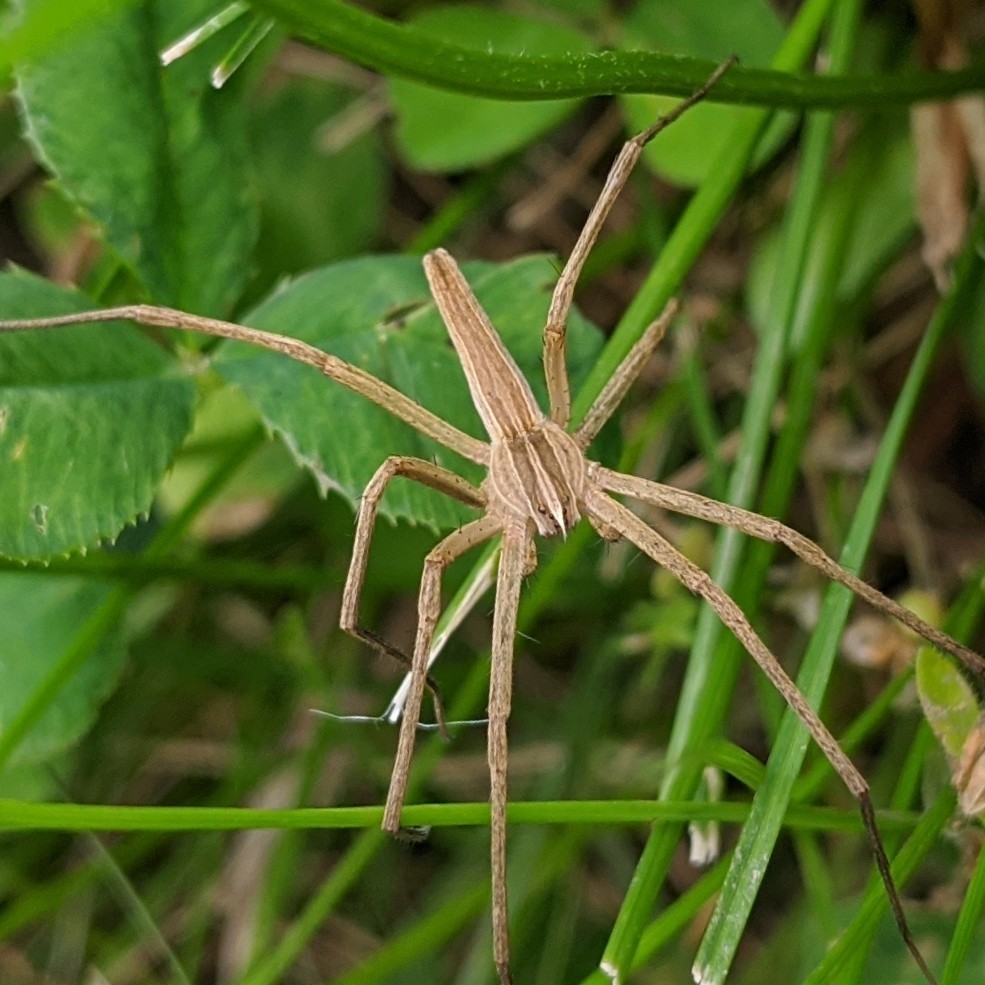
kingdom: Animalia
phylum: Arthropoda
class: Arachnida
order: Araneae
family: Pisauridae
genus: Pisaurina
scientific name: Pisaurina dubia
